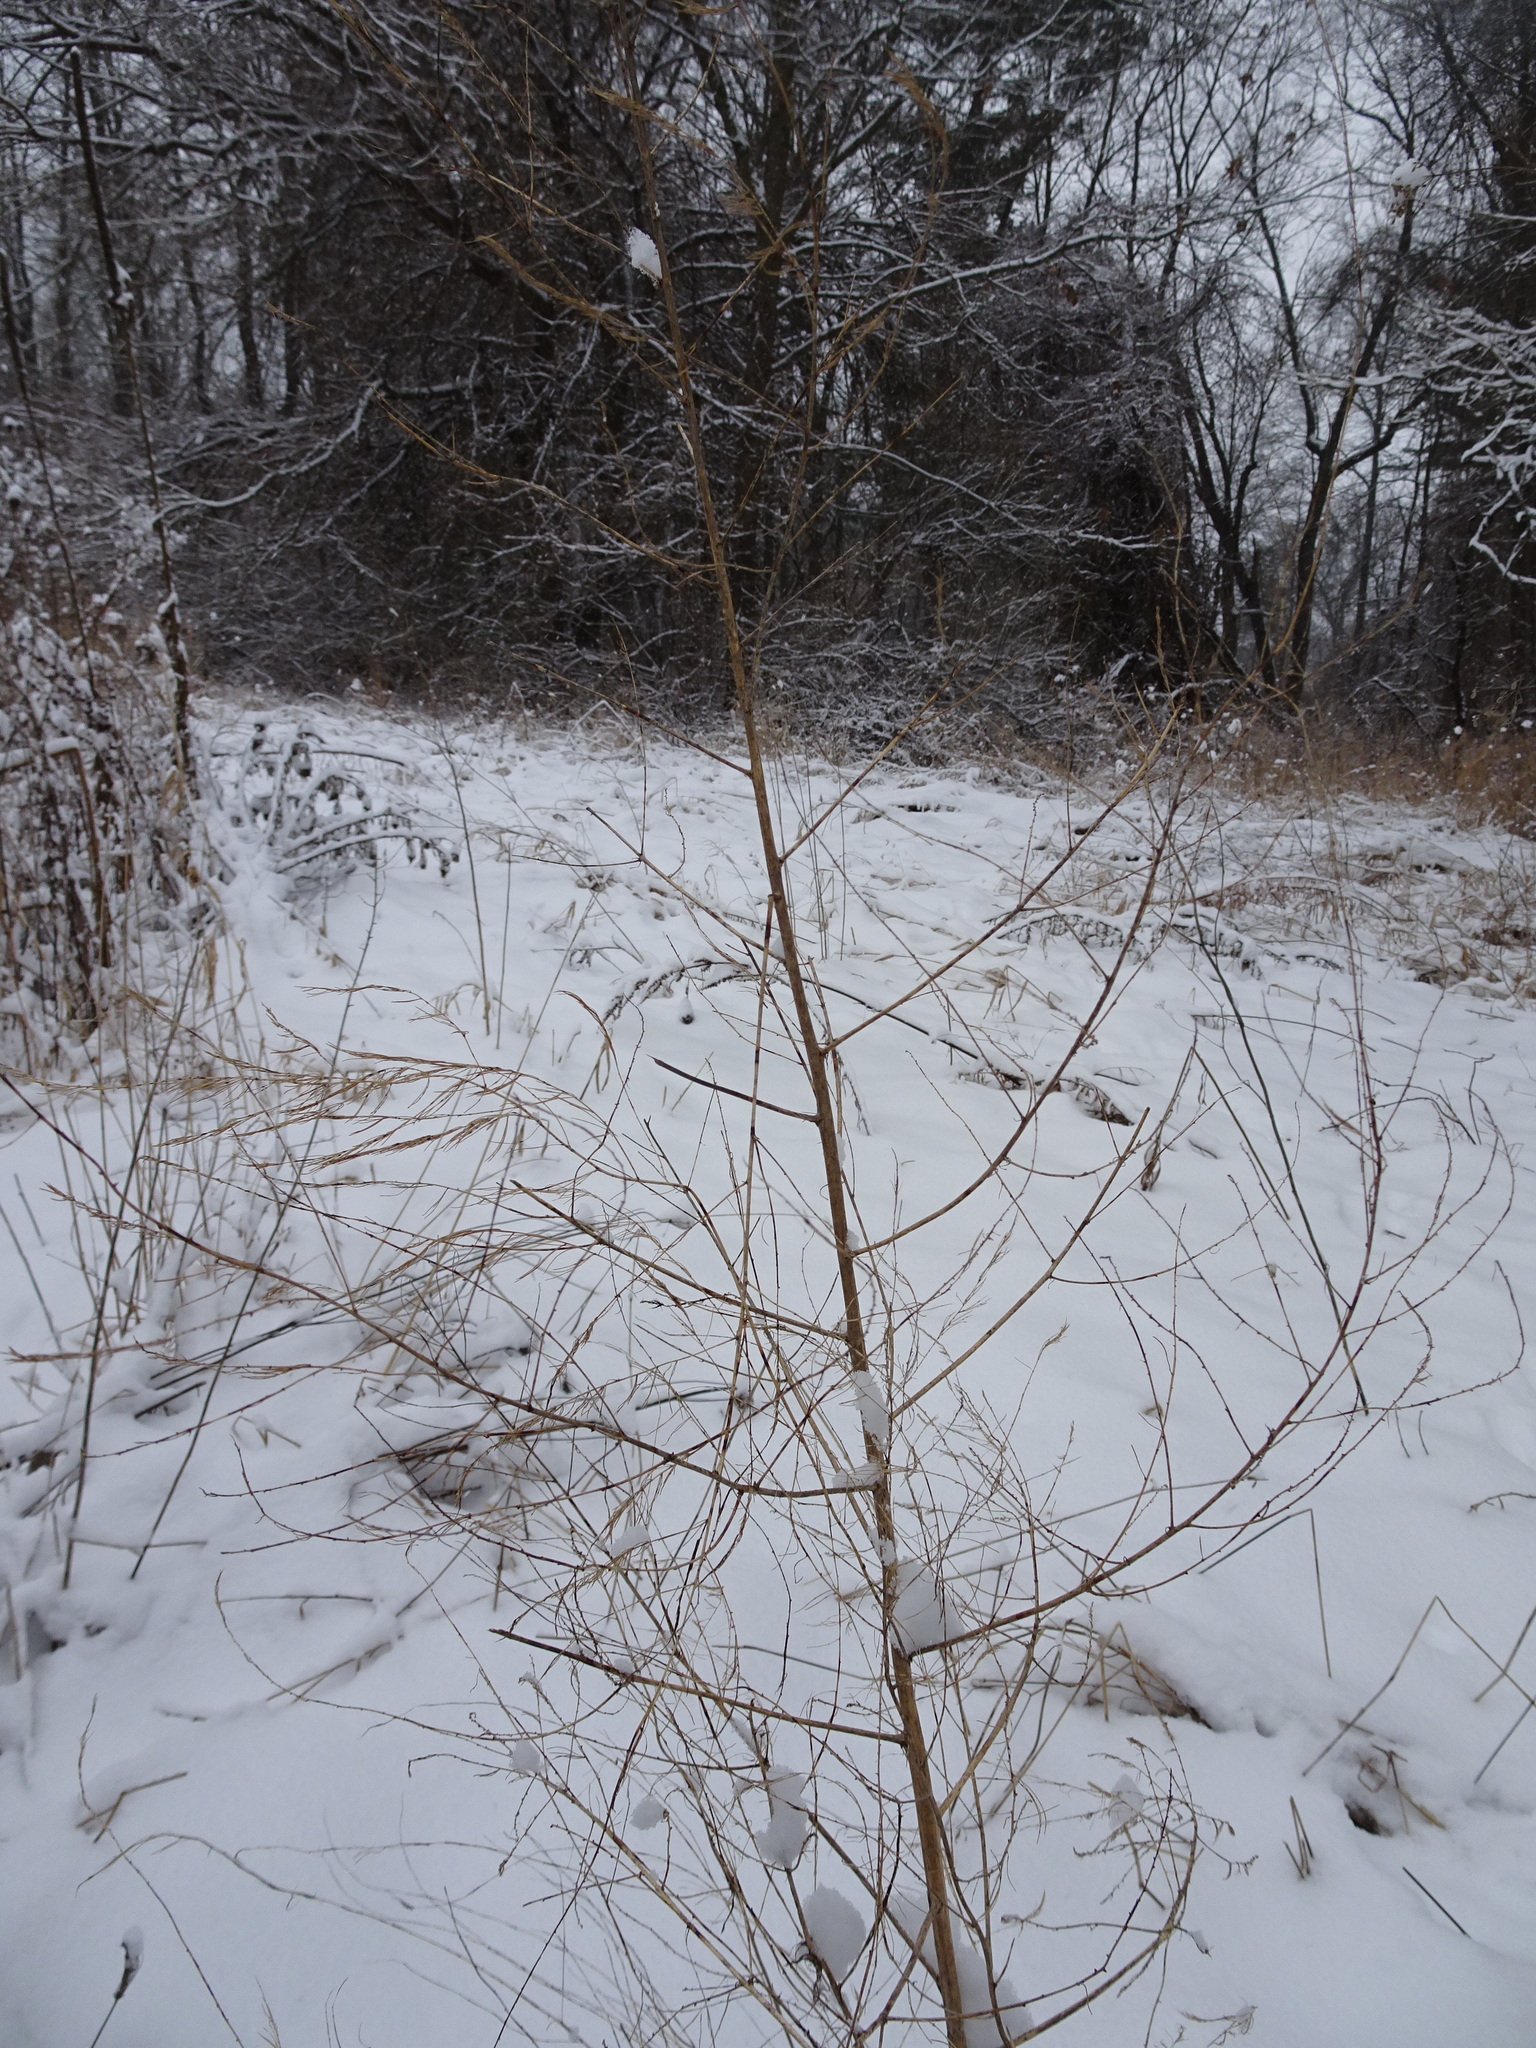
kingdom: Plantae
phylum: Tracheophyta
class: Liliopsida
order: Asparagales
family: Asparagaceae
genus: Asparagus
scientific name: Asparagus officinalis
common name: Garden asparagus
